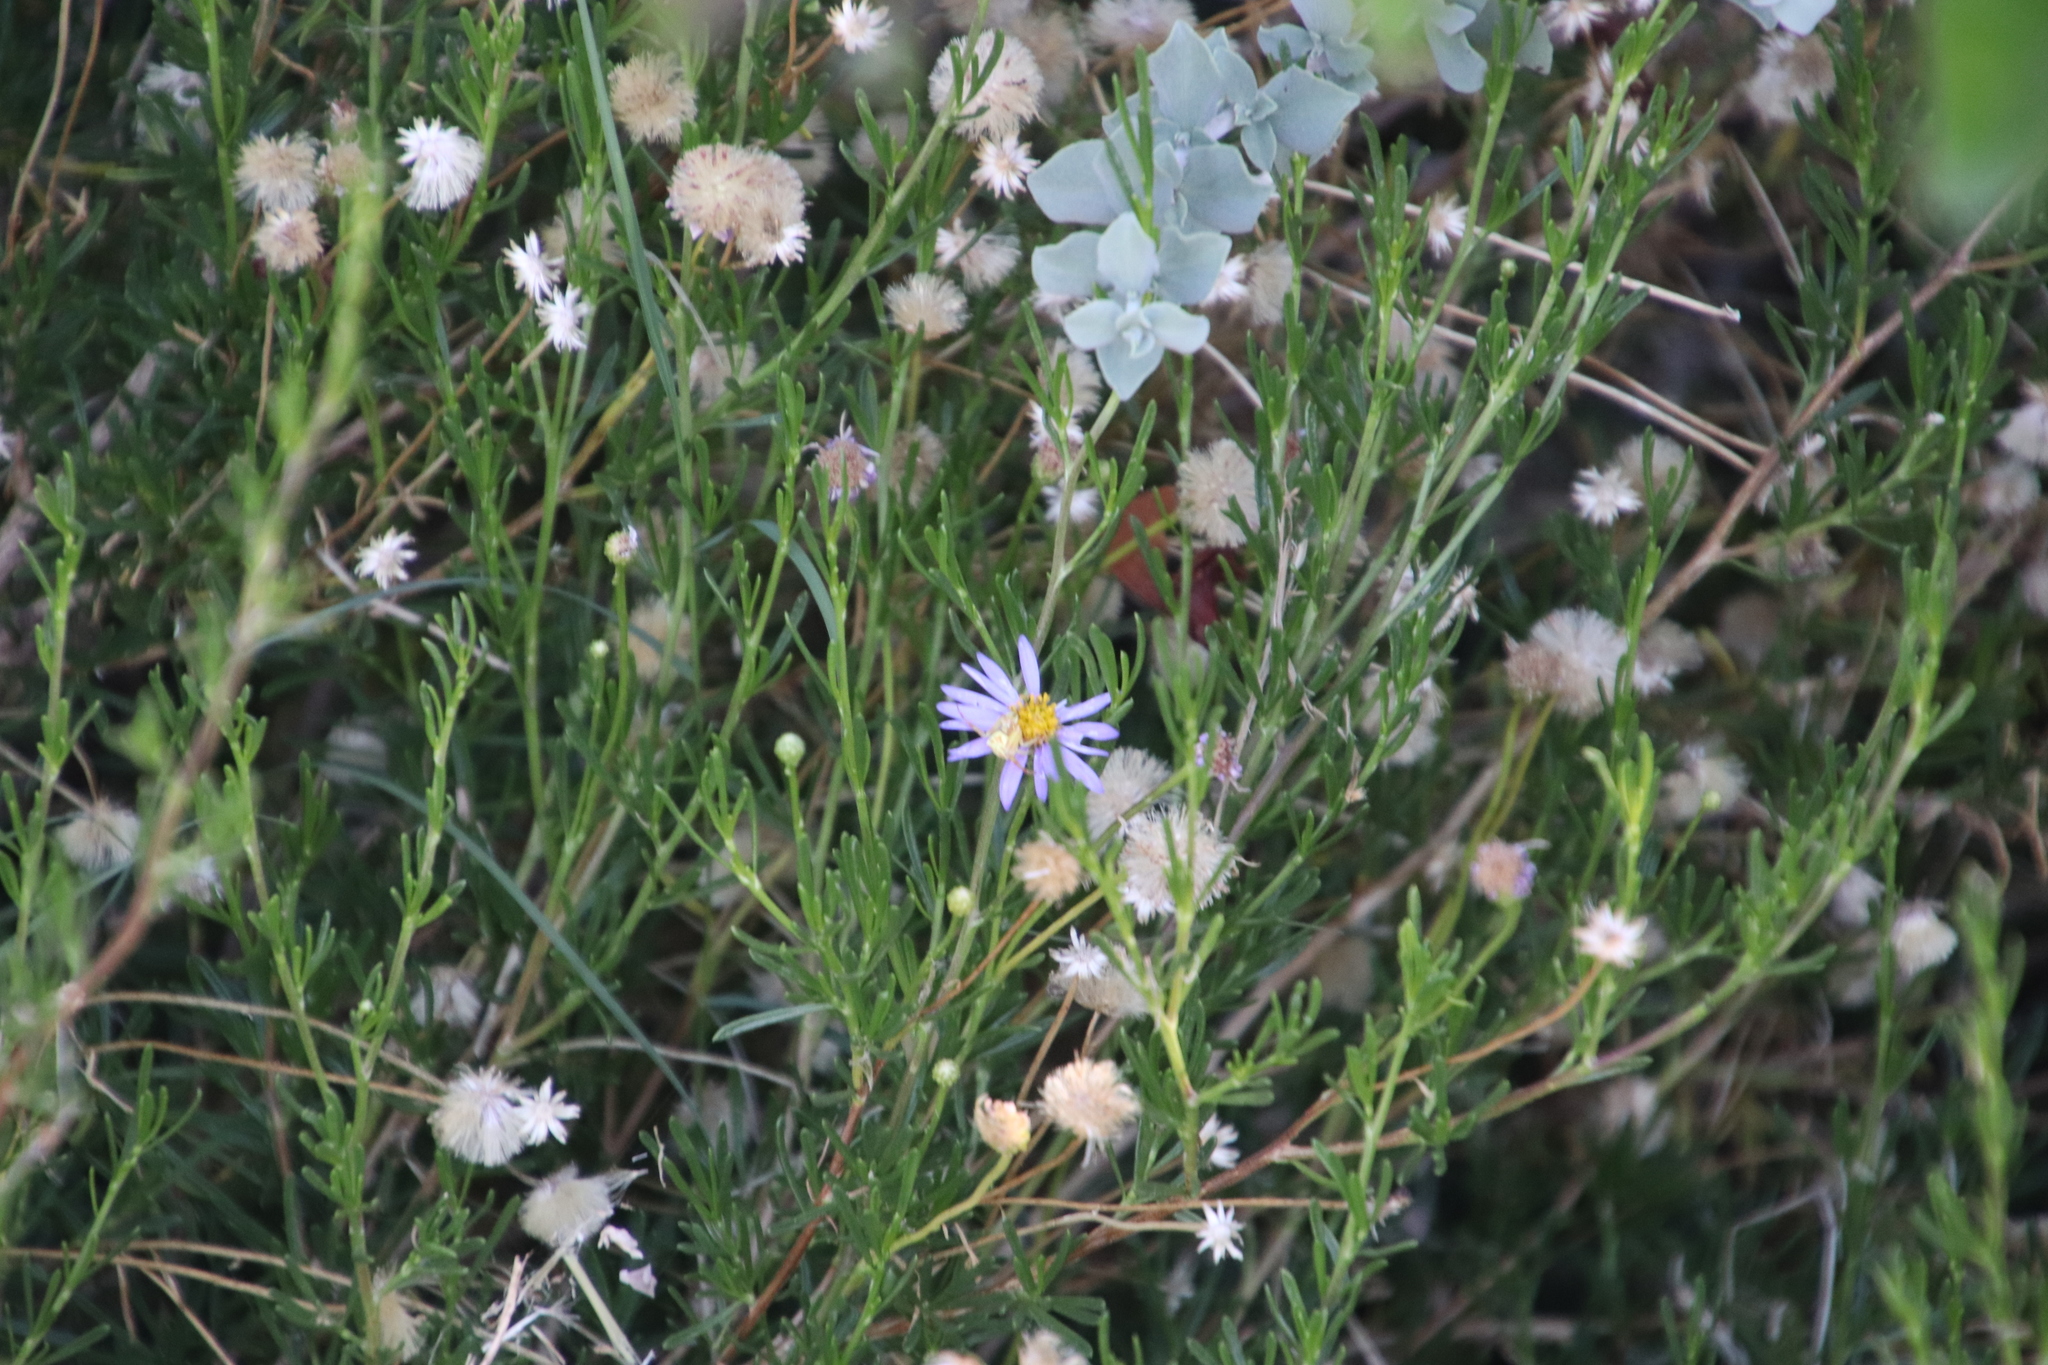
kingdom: Plantae
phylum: Tracheophyta
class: Magnoliopsida
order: Asterales
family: Asteraceae
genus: Felicia
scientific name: Felicia fruticosa
